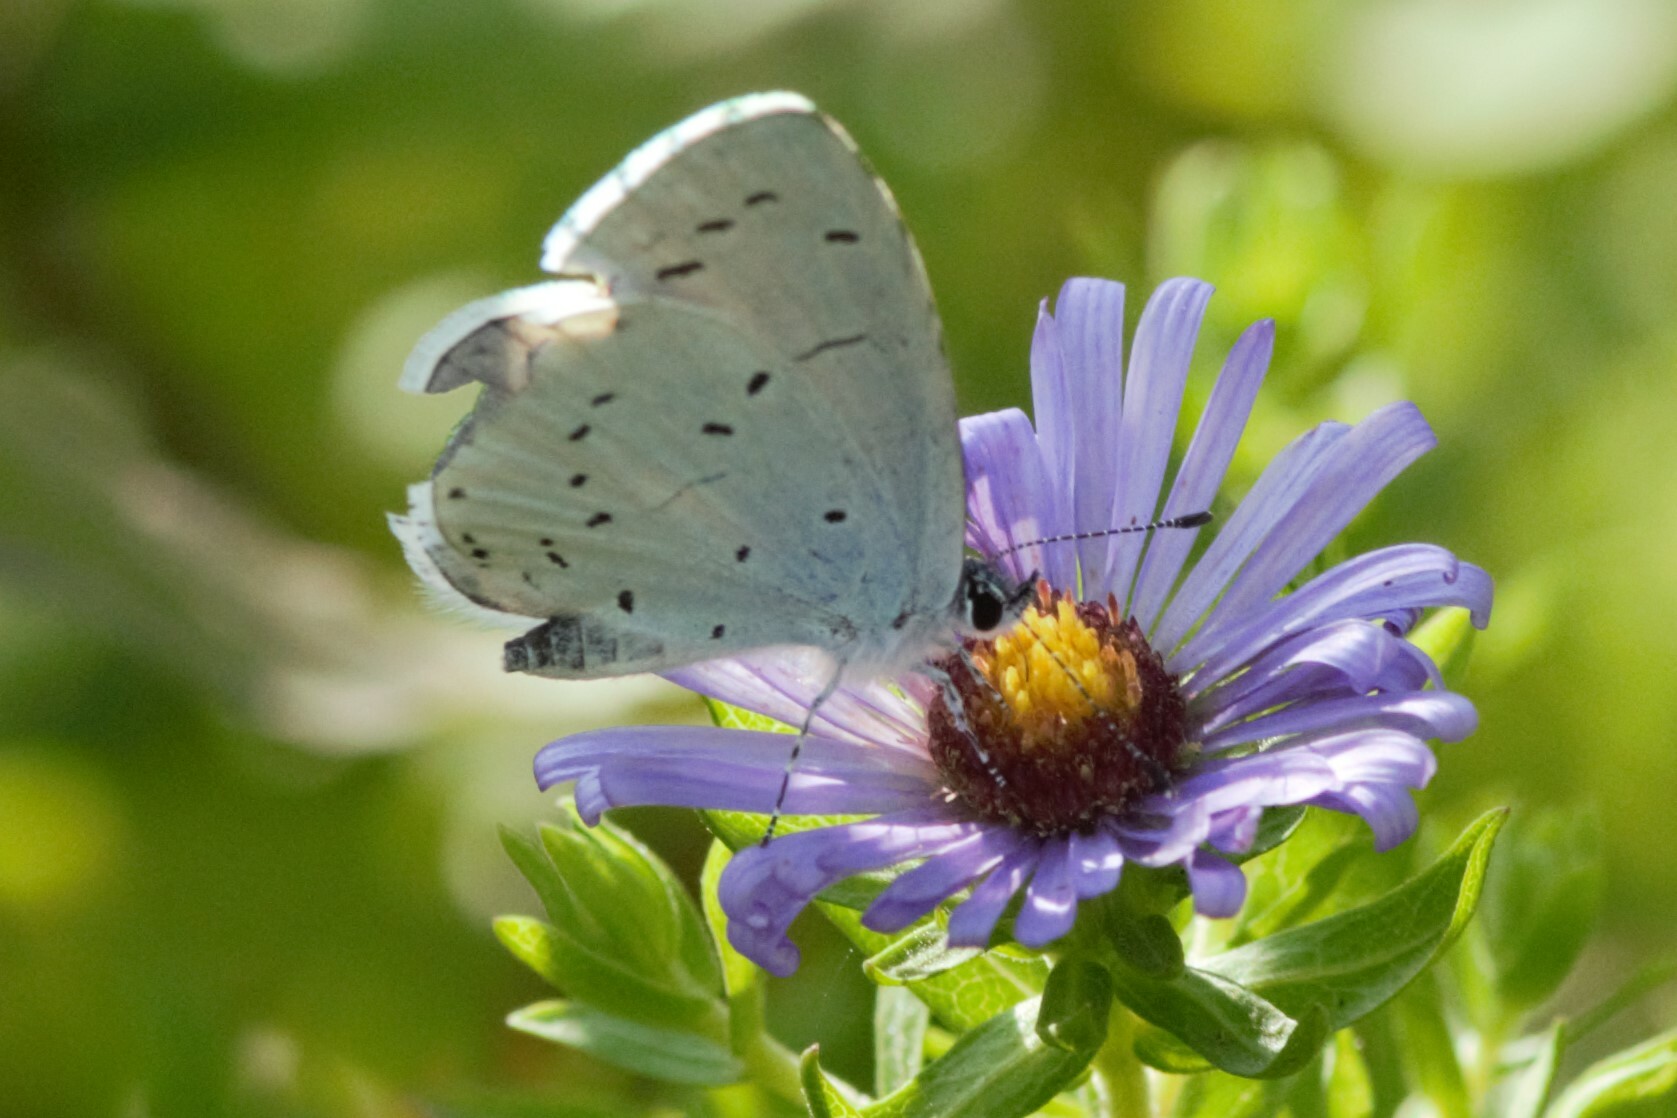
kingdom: Animalia
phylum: Arthropoda
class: Insecta
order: Lepidoptera
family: Lycaenidae
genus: Celastrina
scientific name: Celastrina argiolus
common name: Holly blue
